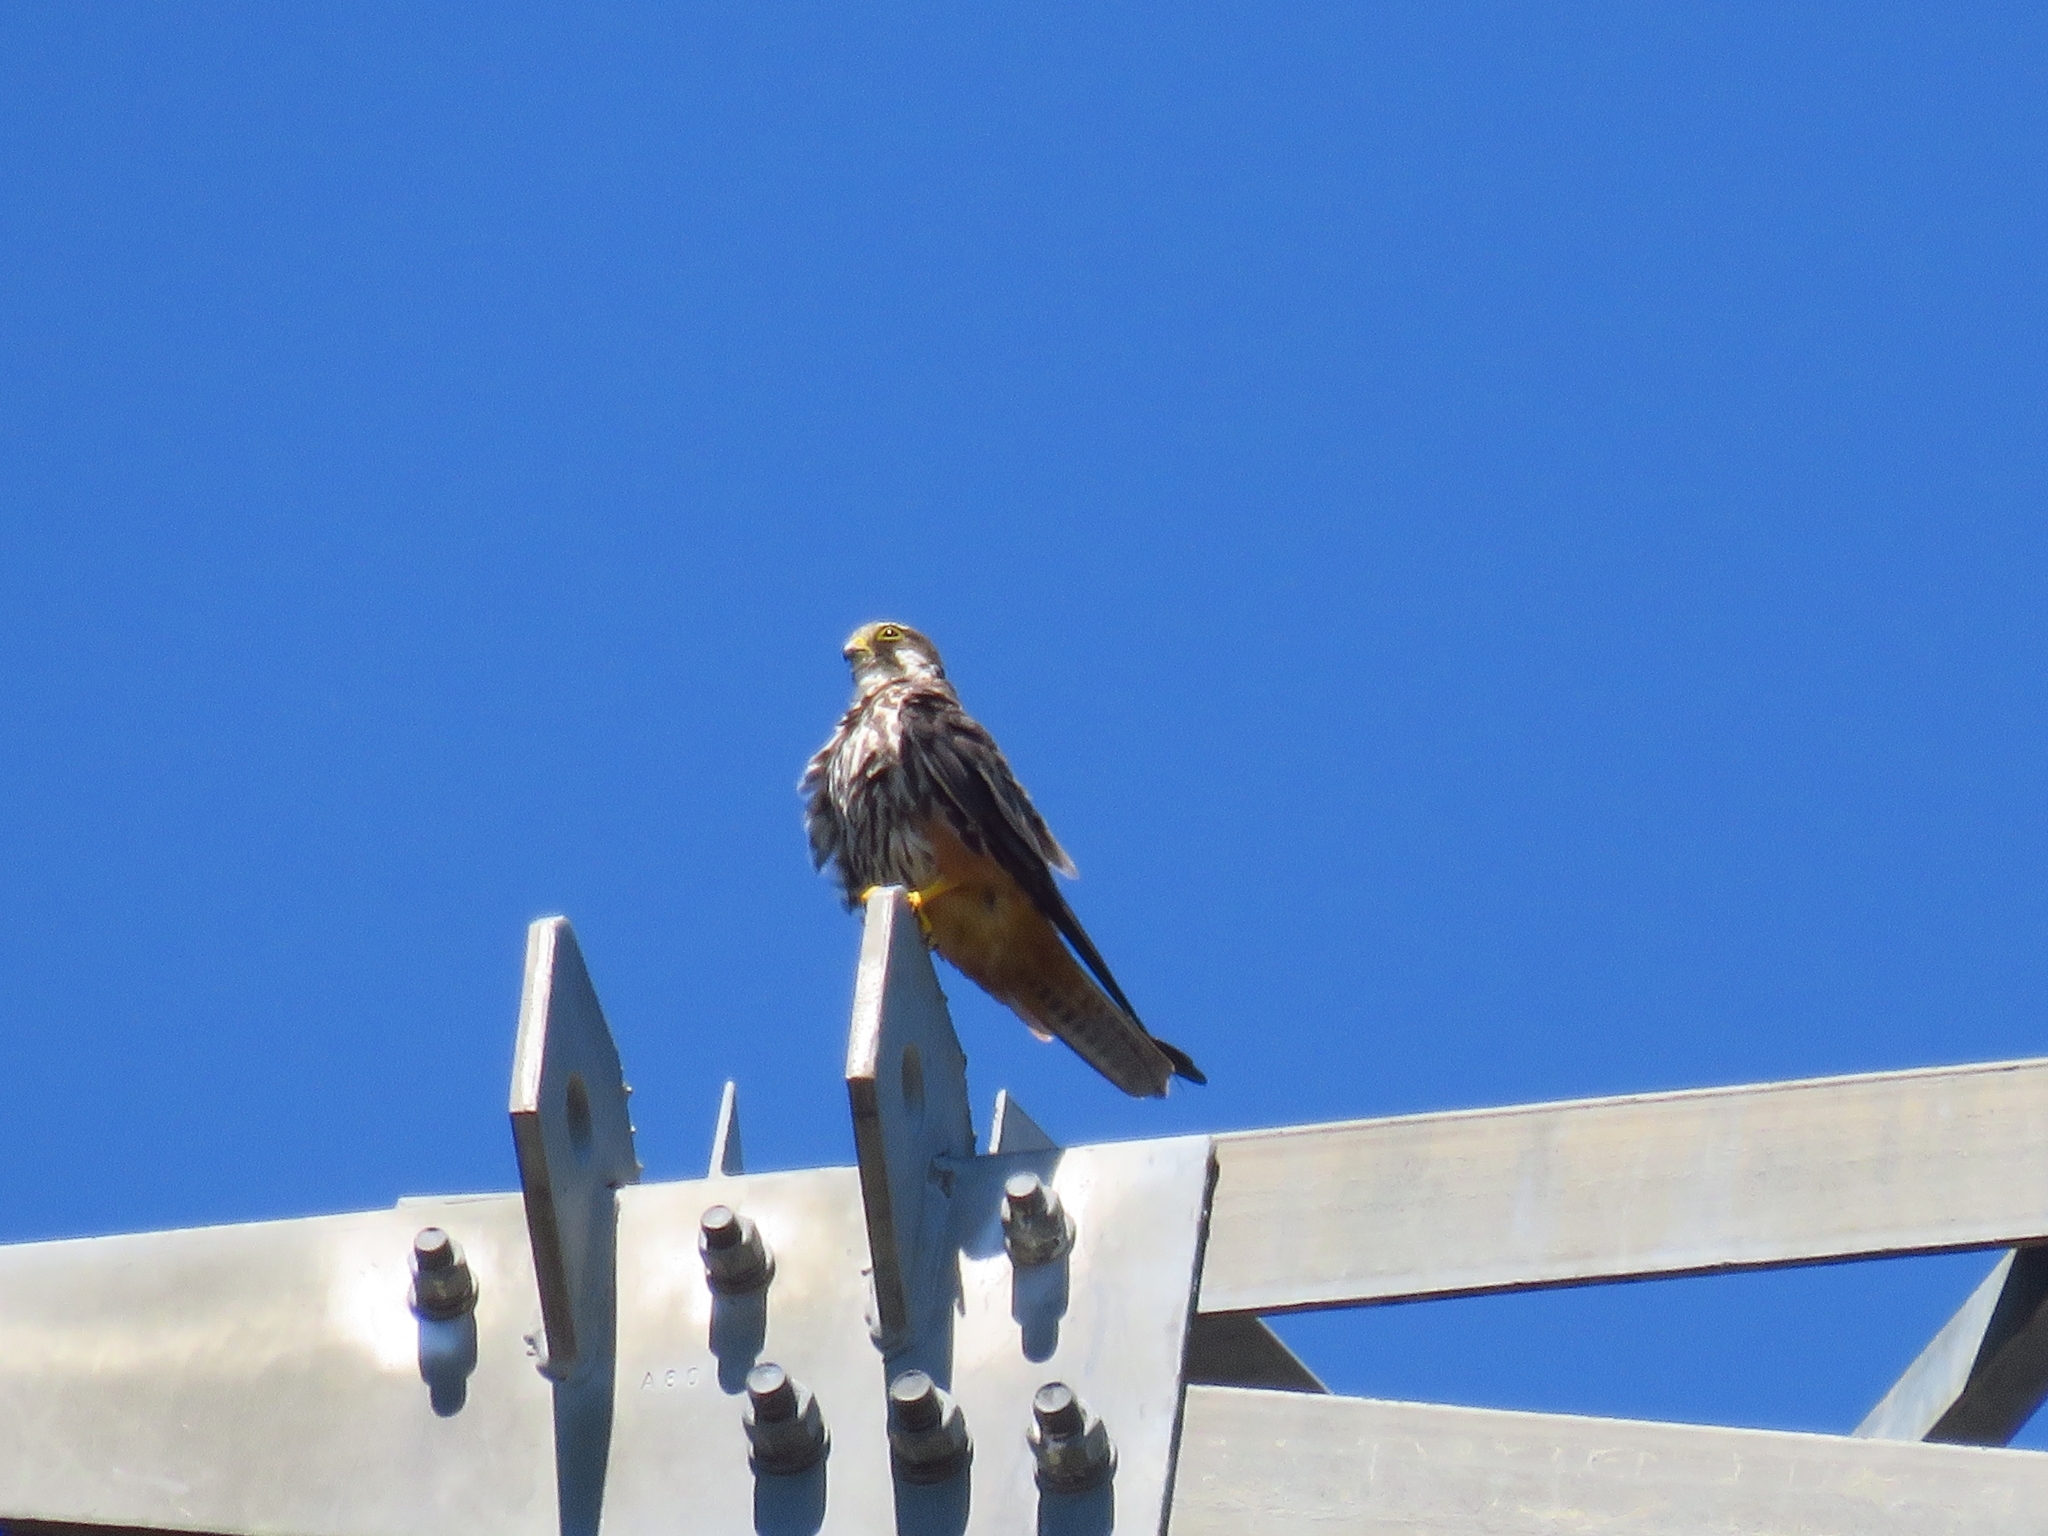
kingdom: Animalia
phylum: Chordata
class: Aves
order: Falconiformes
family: Falconidae
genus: Falco
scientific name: Falco subbuteo
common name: Eurasian hobby
